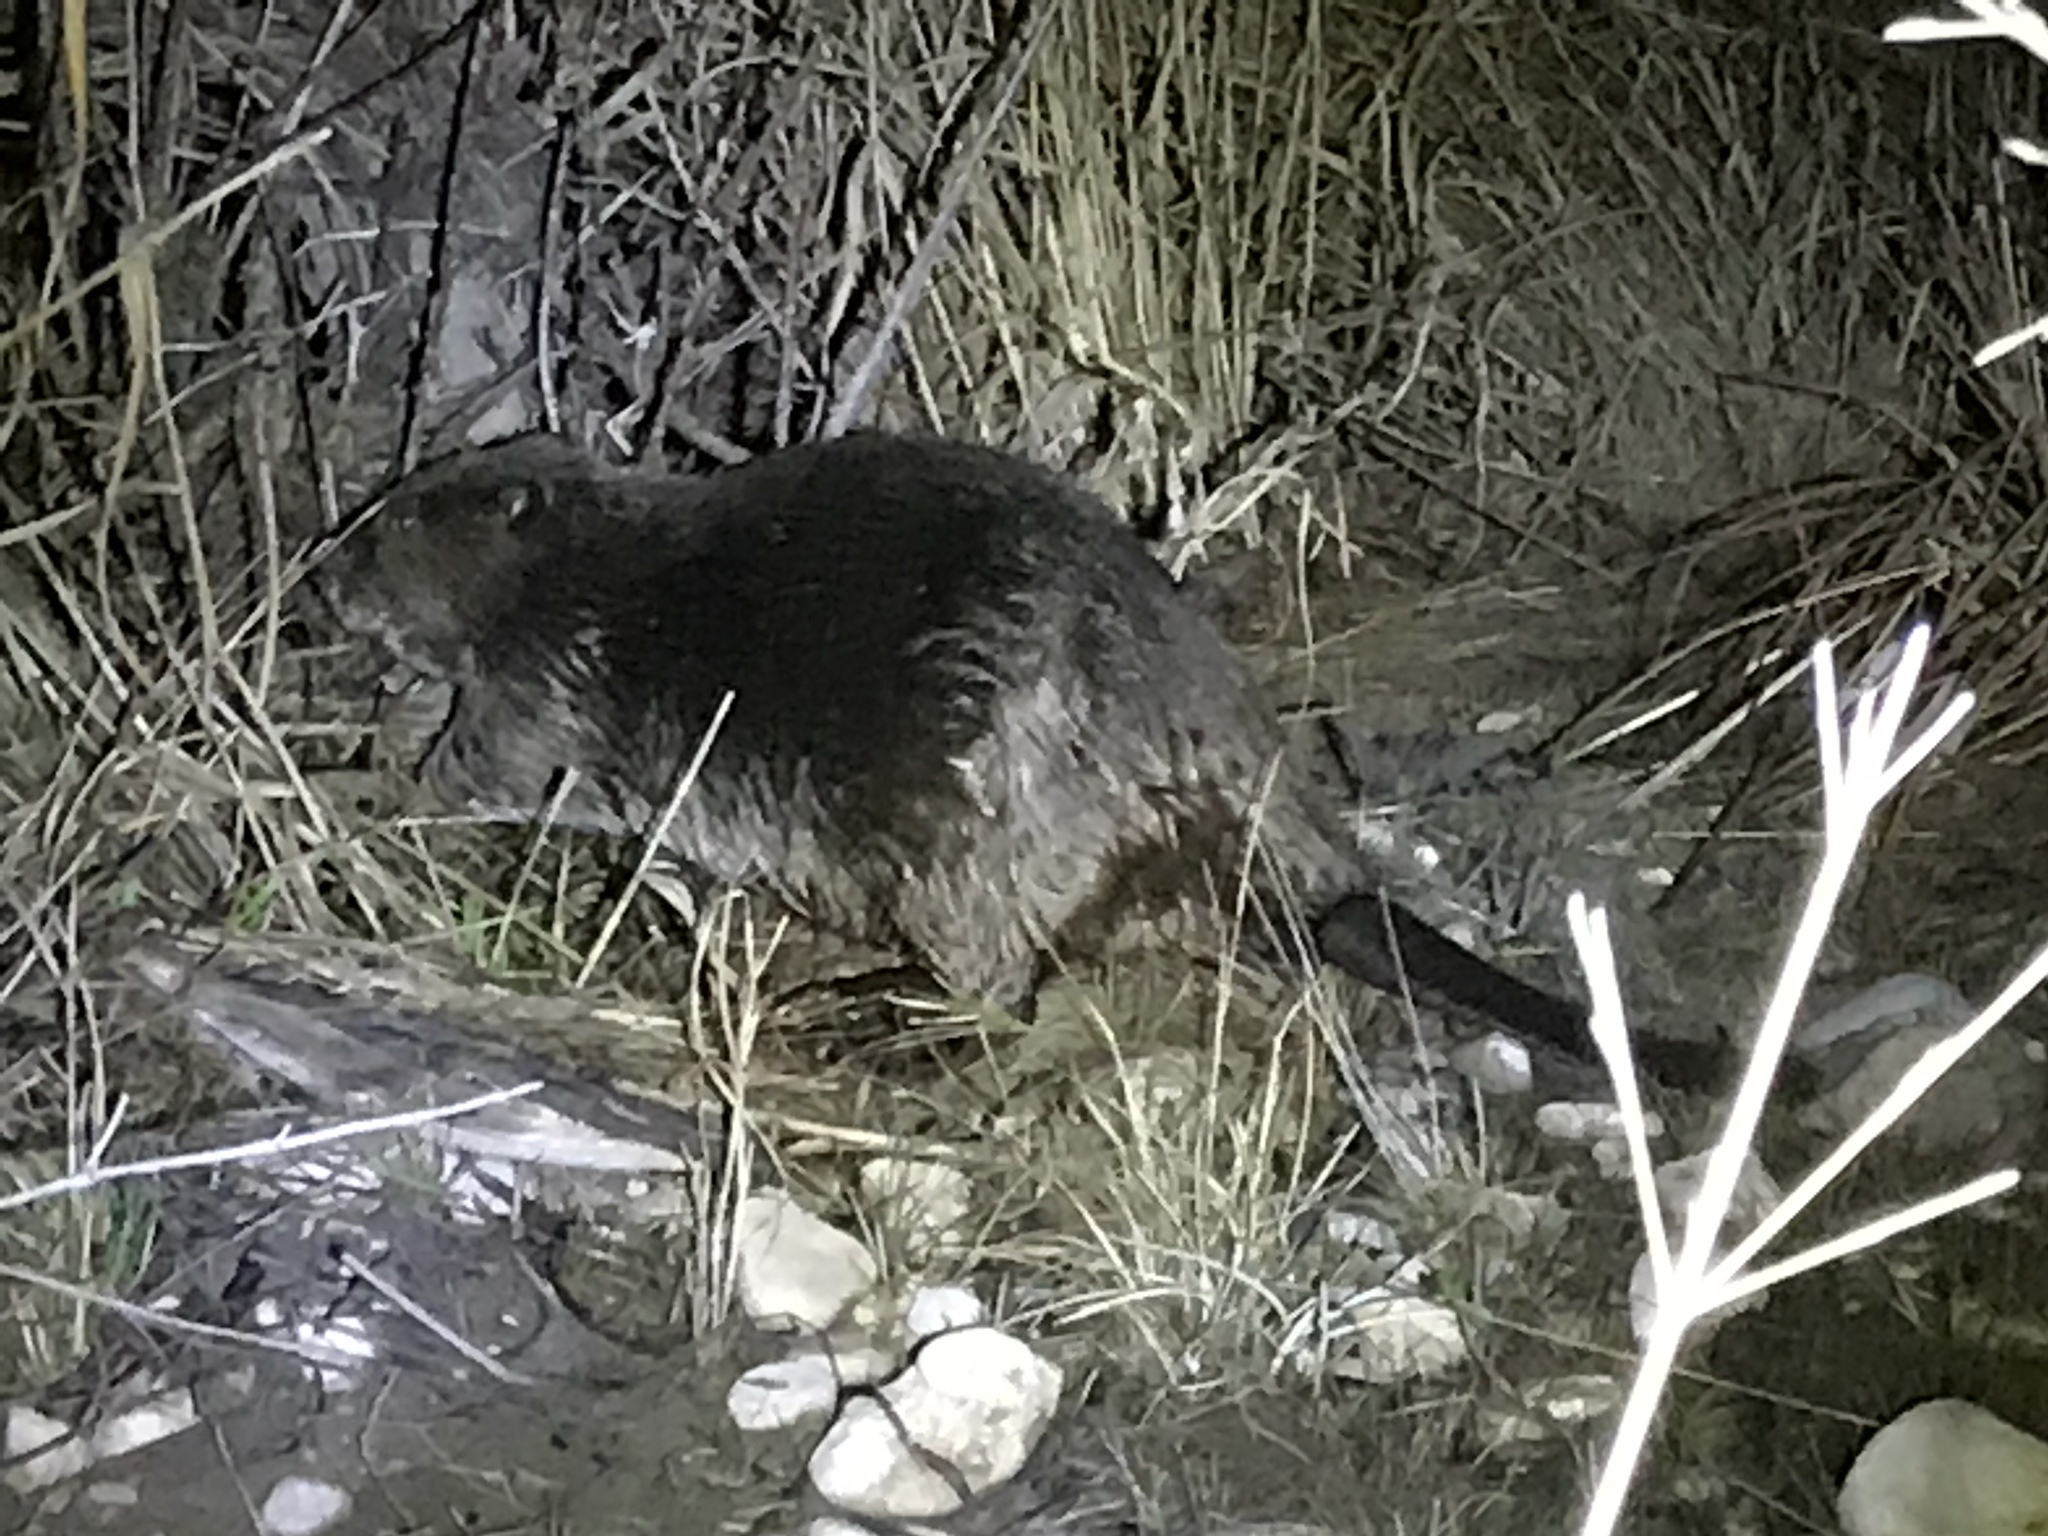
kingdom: Animalia
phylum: Chordata
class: Mammalia
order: Rodentia
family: Castoridae
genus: Castor
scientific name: Castor canadensis
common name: American beaver
